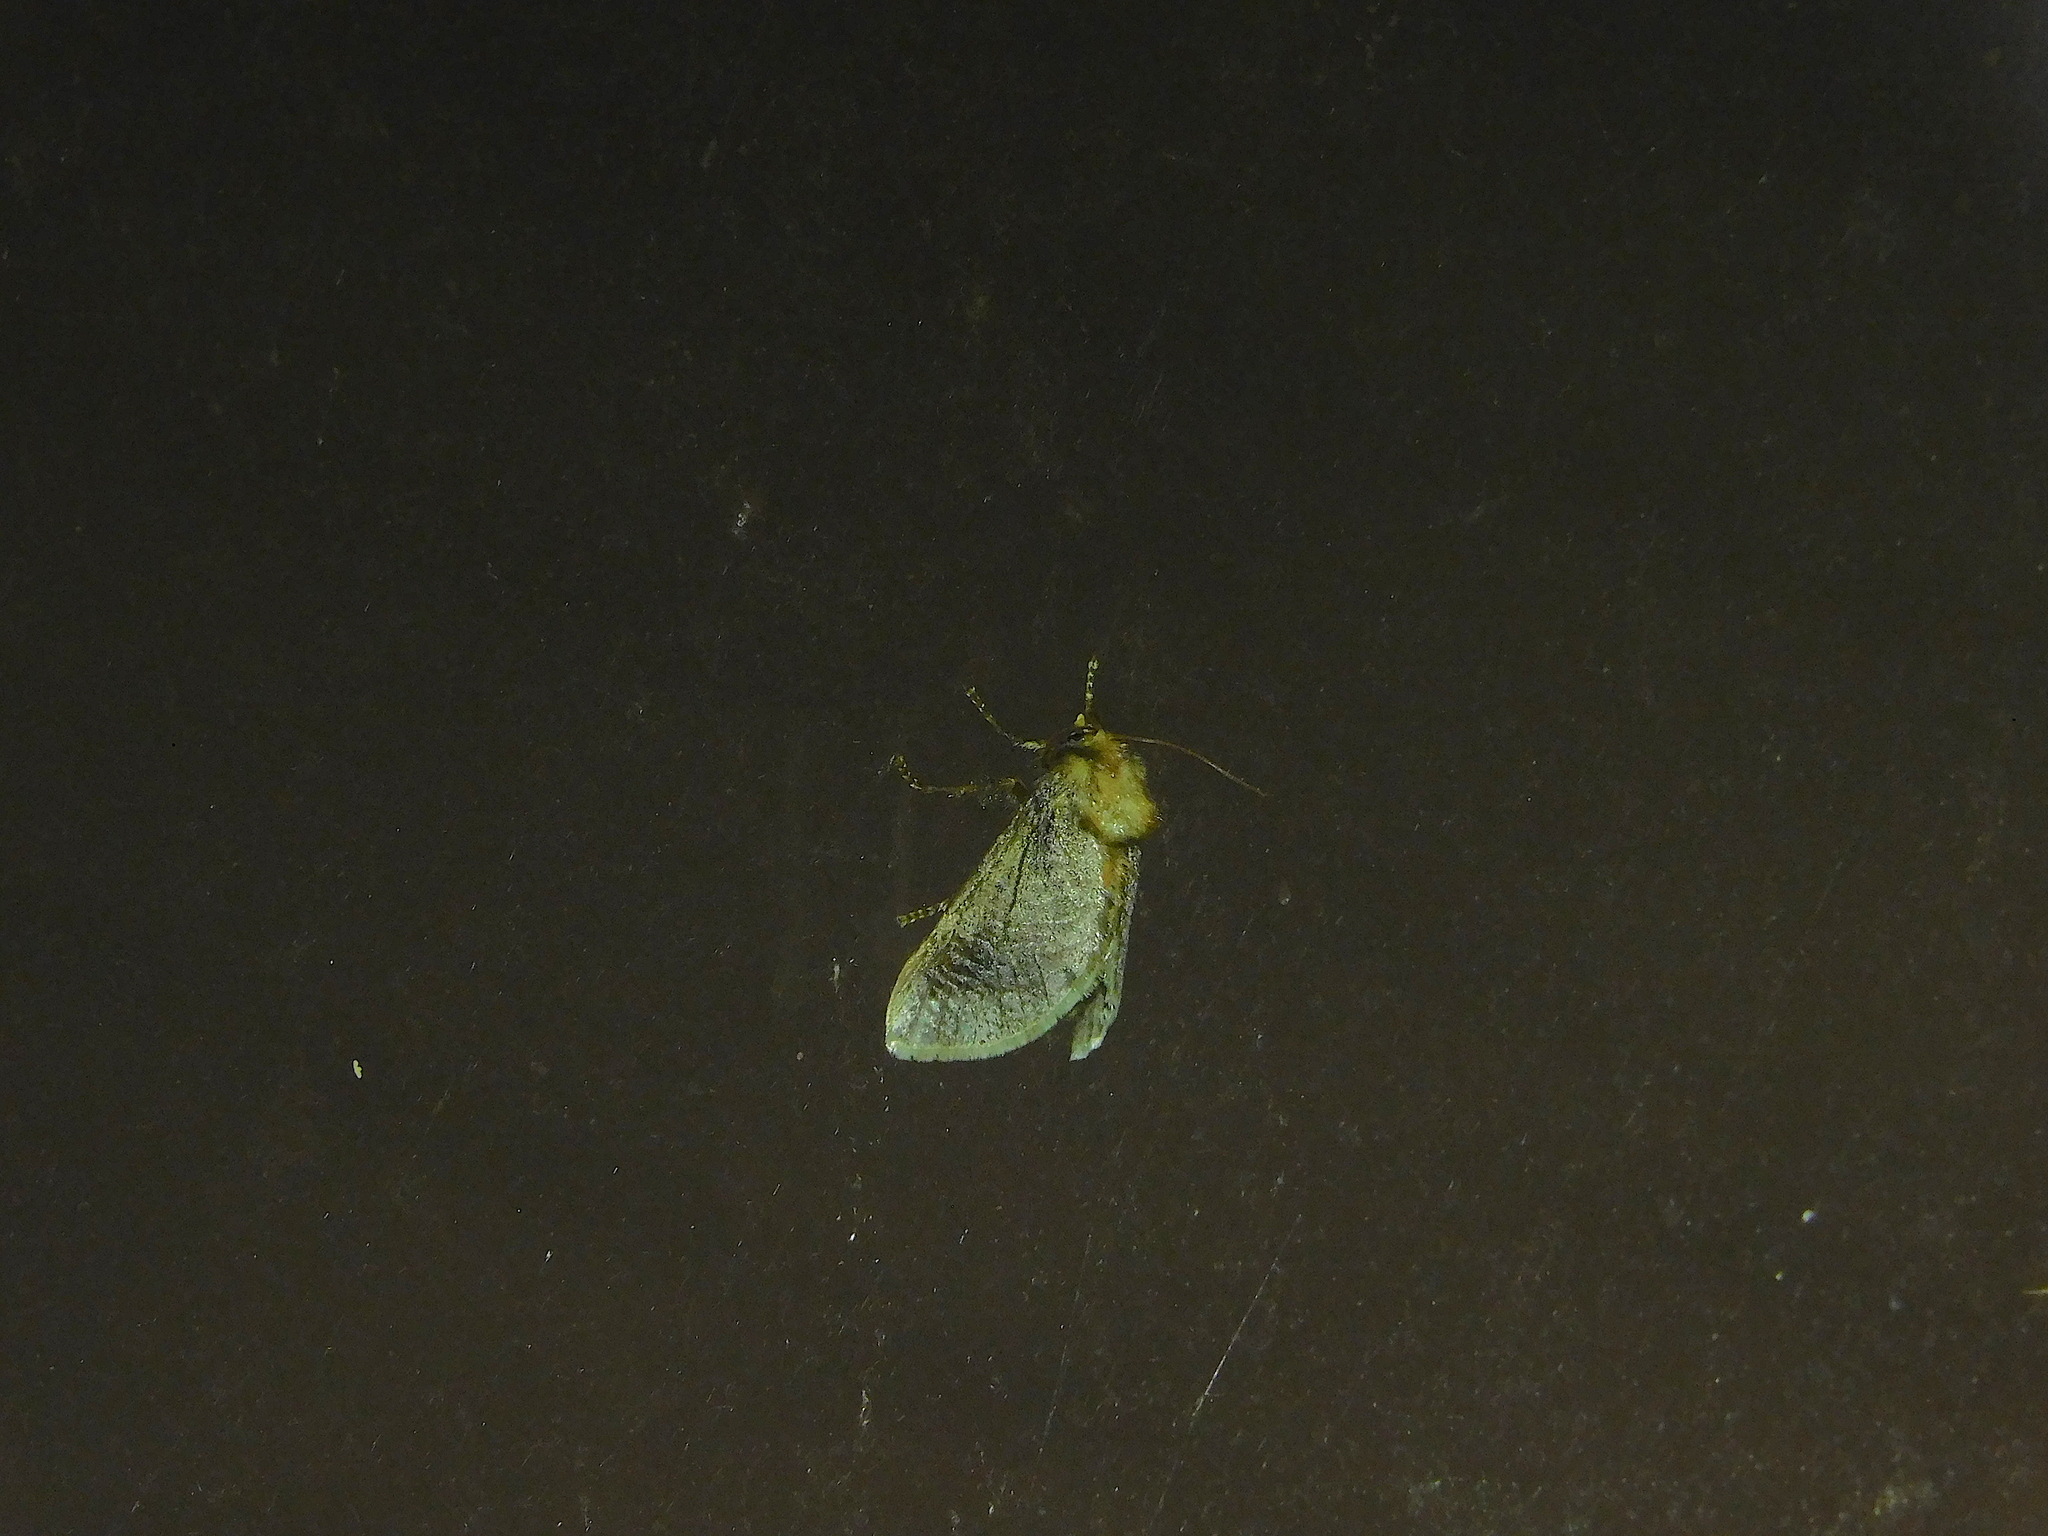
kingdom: Animalia
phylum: Arthropoda
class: Insecta
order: Lepidoptera
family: Limacodidae
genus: Doratifera
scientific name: Doratifera oxleyi
